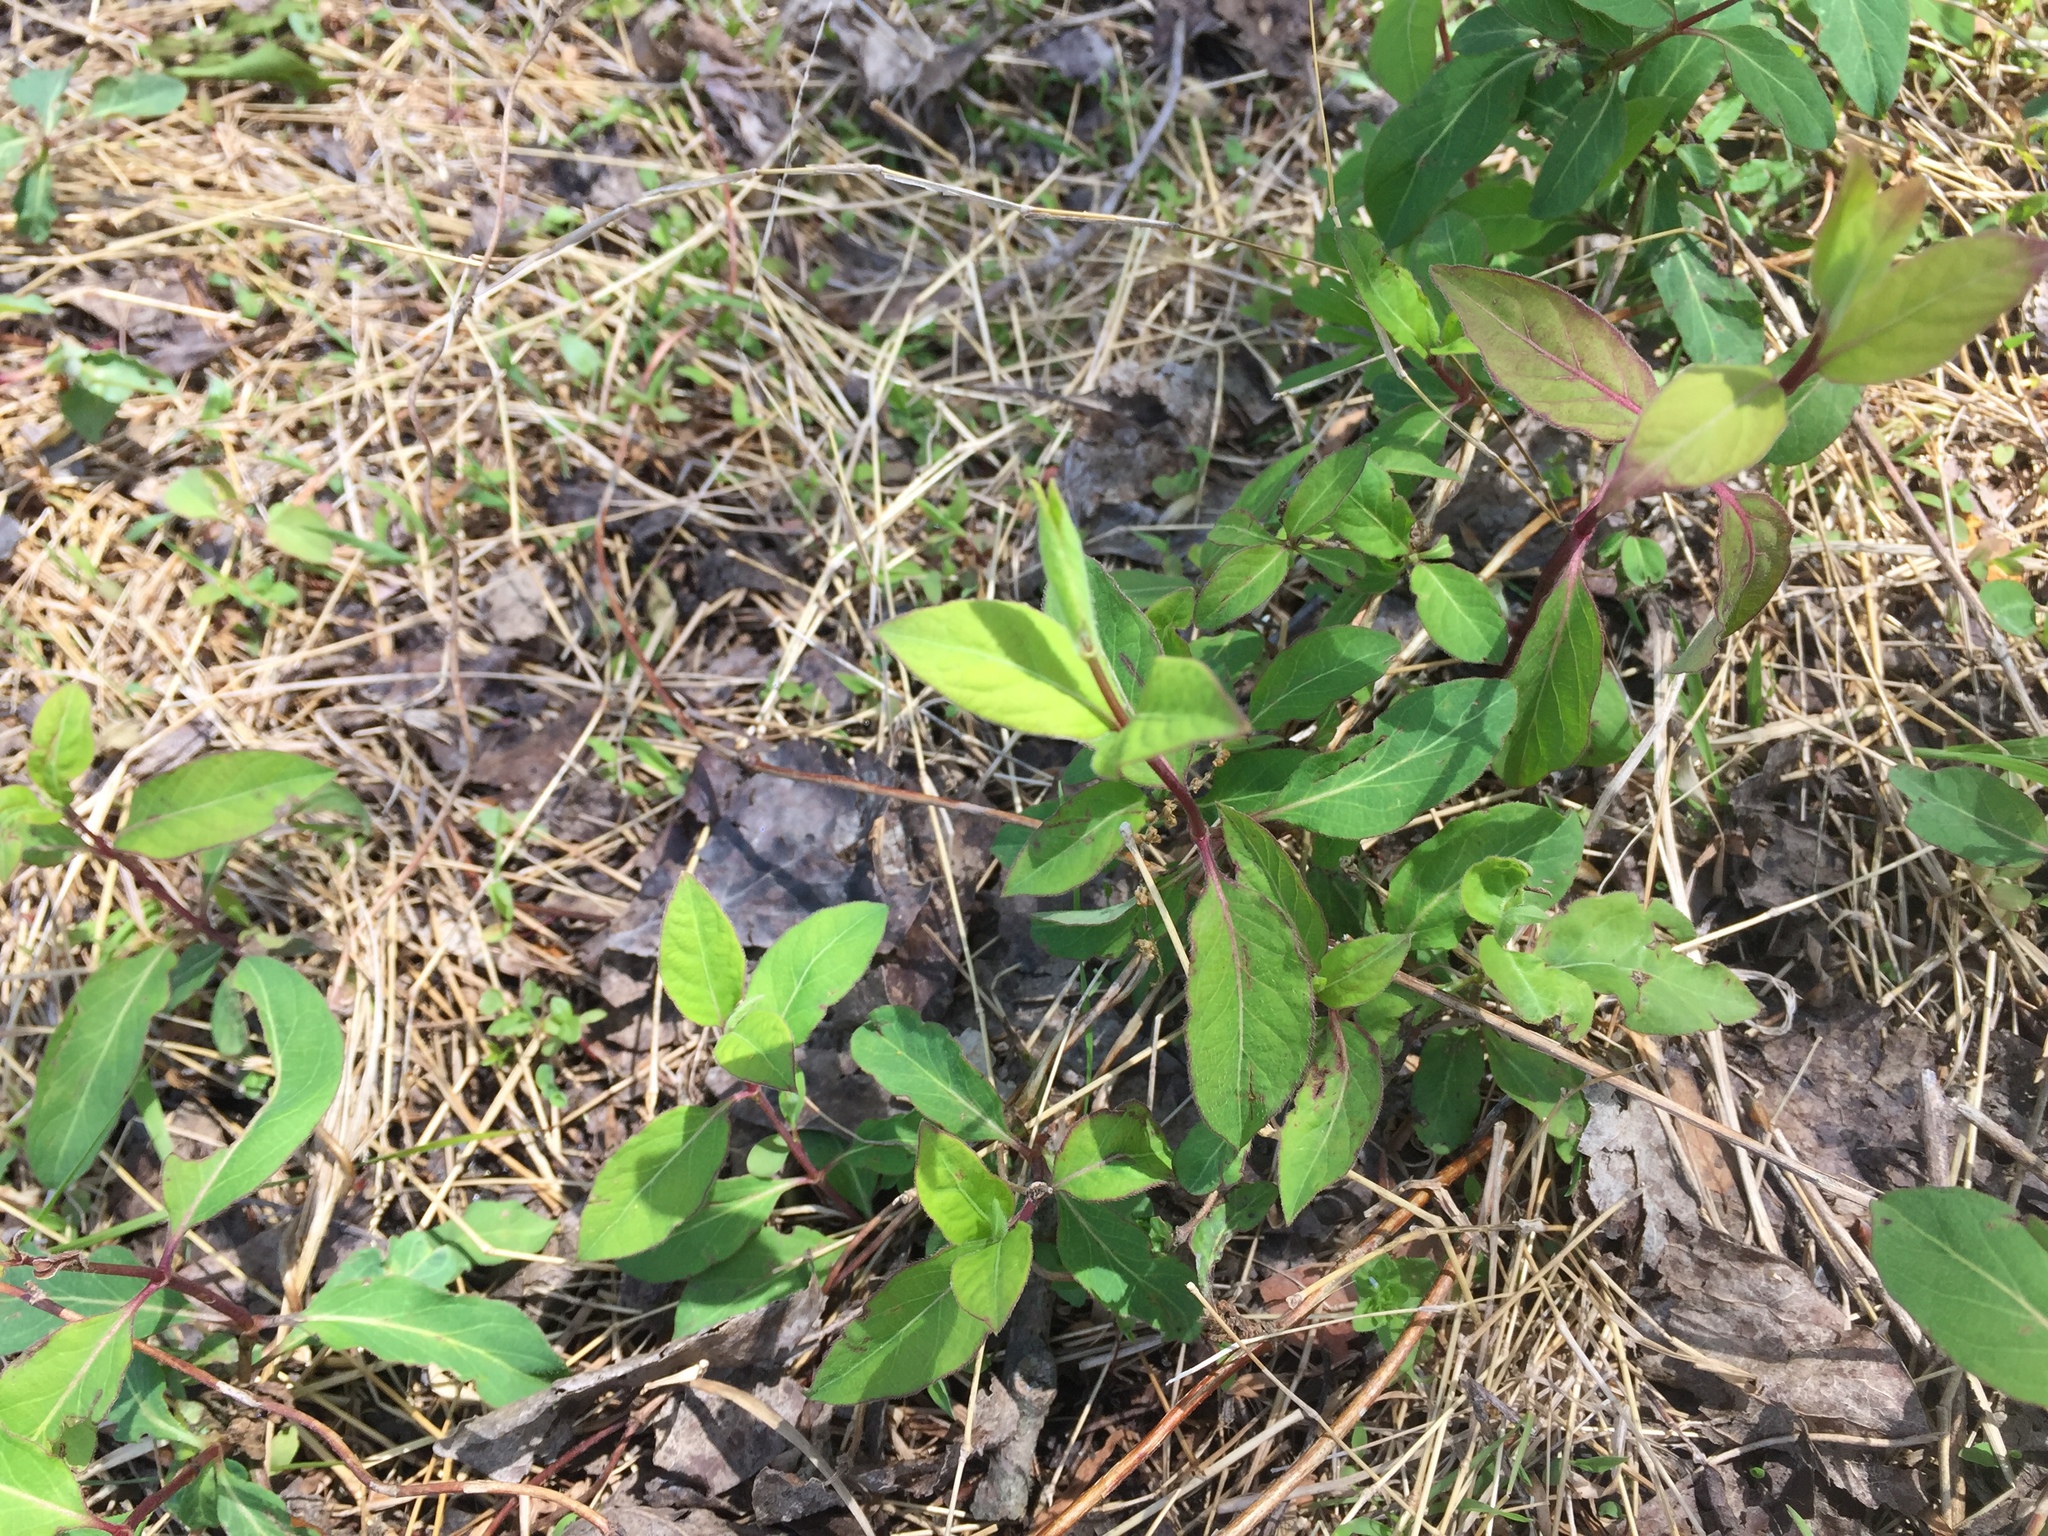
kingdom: Plantae
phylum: Tracheophyta
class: Magnoliopsida
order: Dipsacales
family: Caprifoliaceae
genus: Lonicera
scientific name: Lonicera japonica
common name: Japanese honeysuckle
